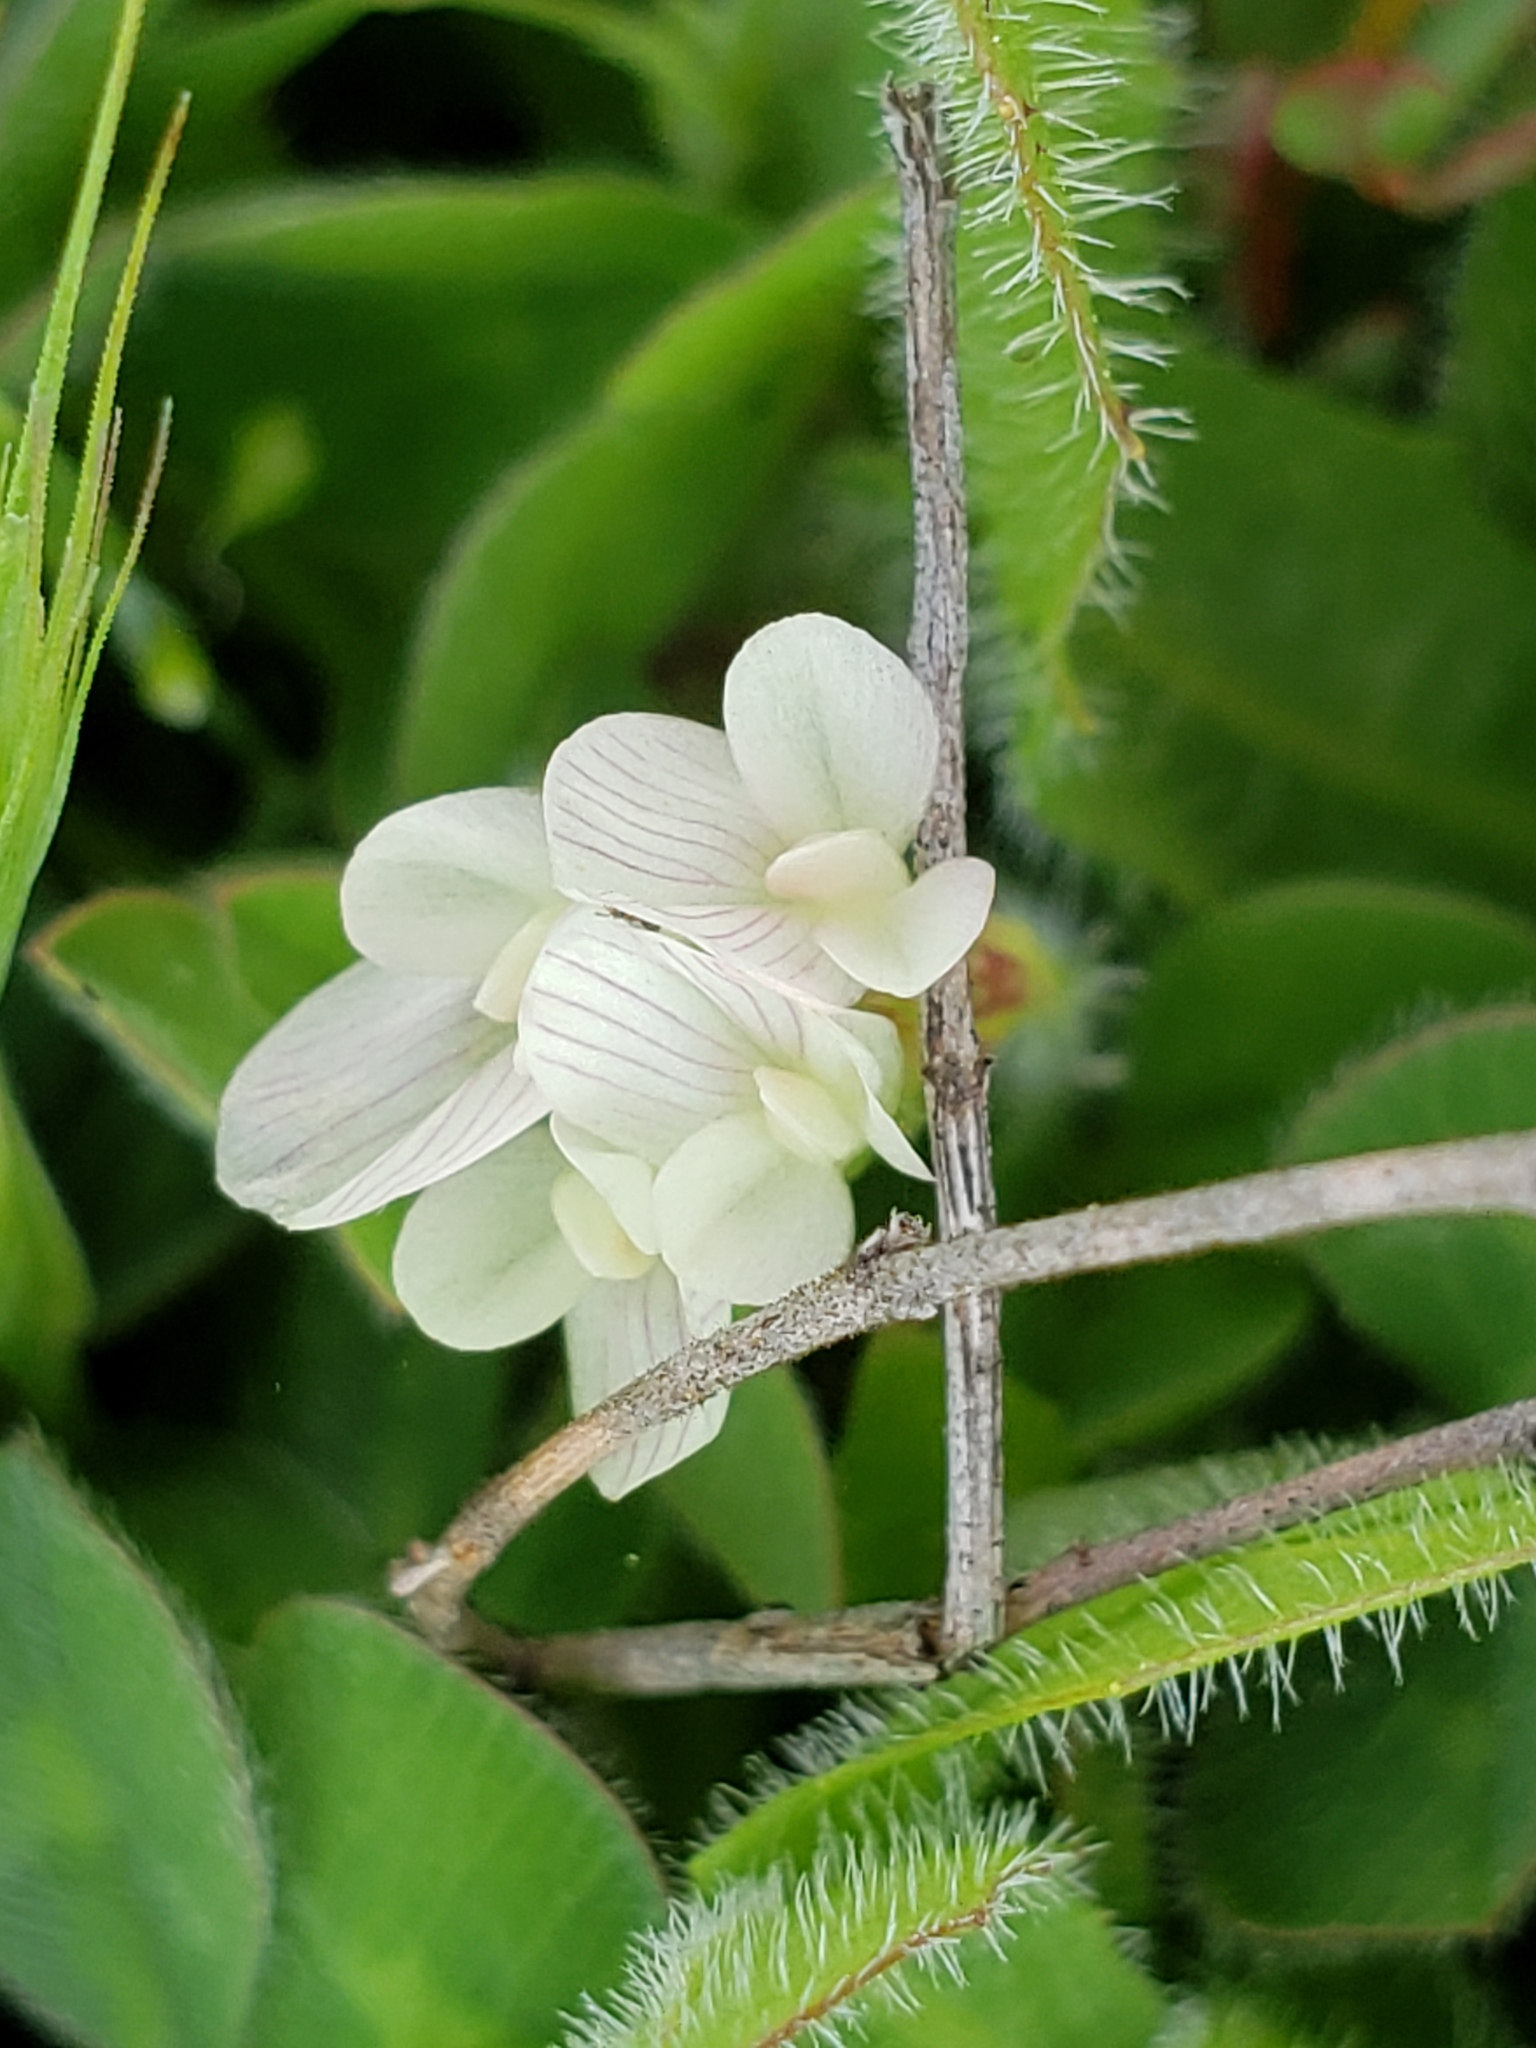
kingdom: Plantae
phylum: Tracheophyta
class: Magnoliopsida
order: Fabales
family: Fabaceae
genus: Trifolium
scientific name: Trifolium subterraneum
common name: Subterranean clover
